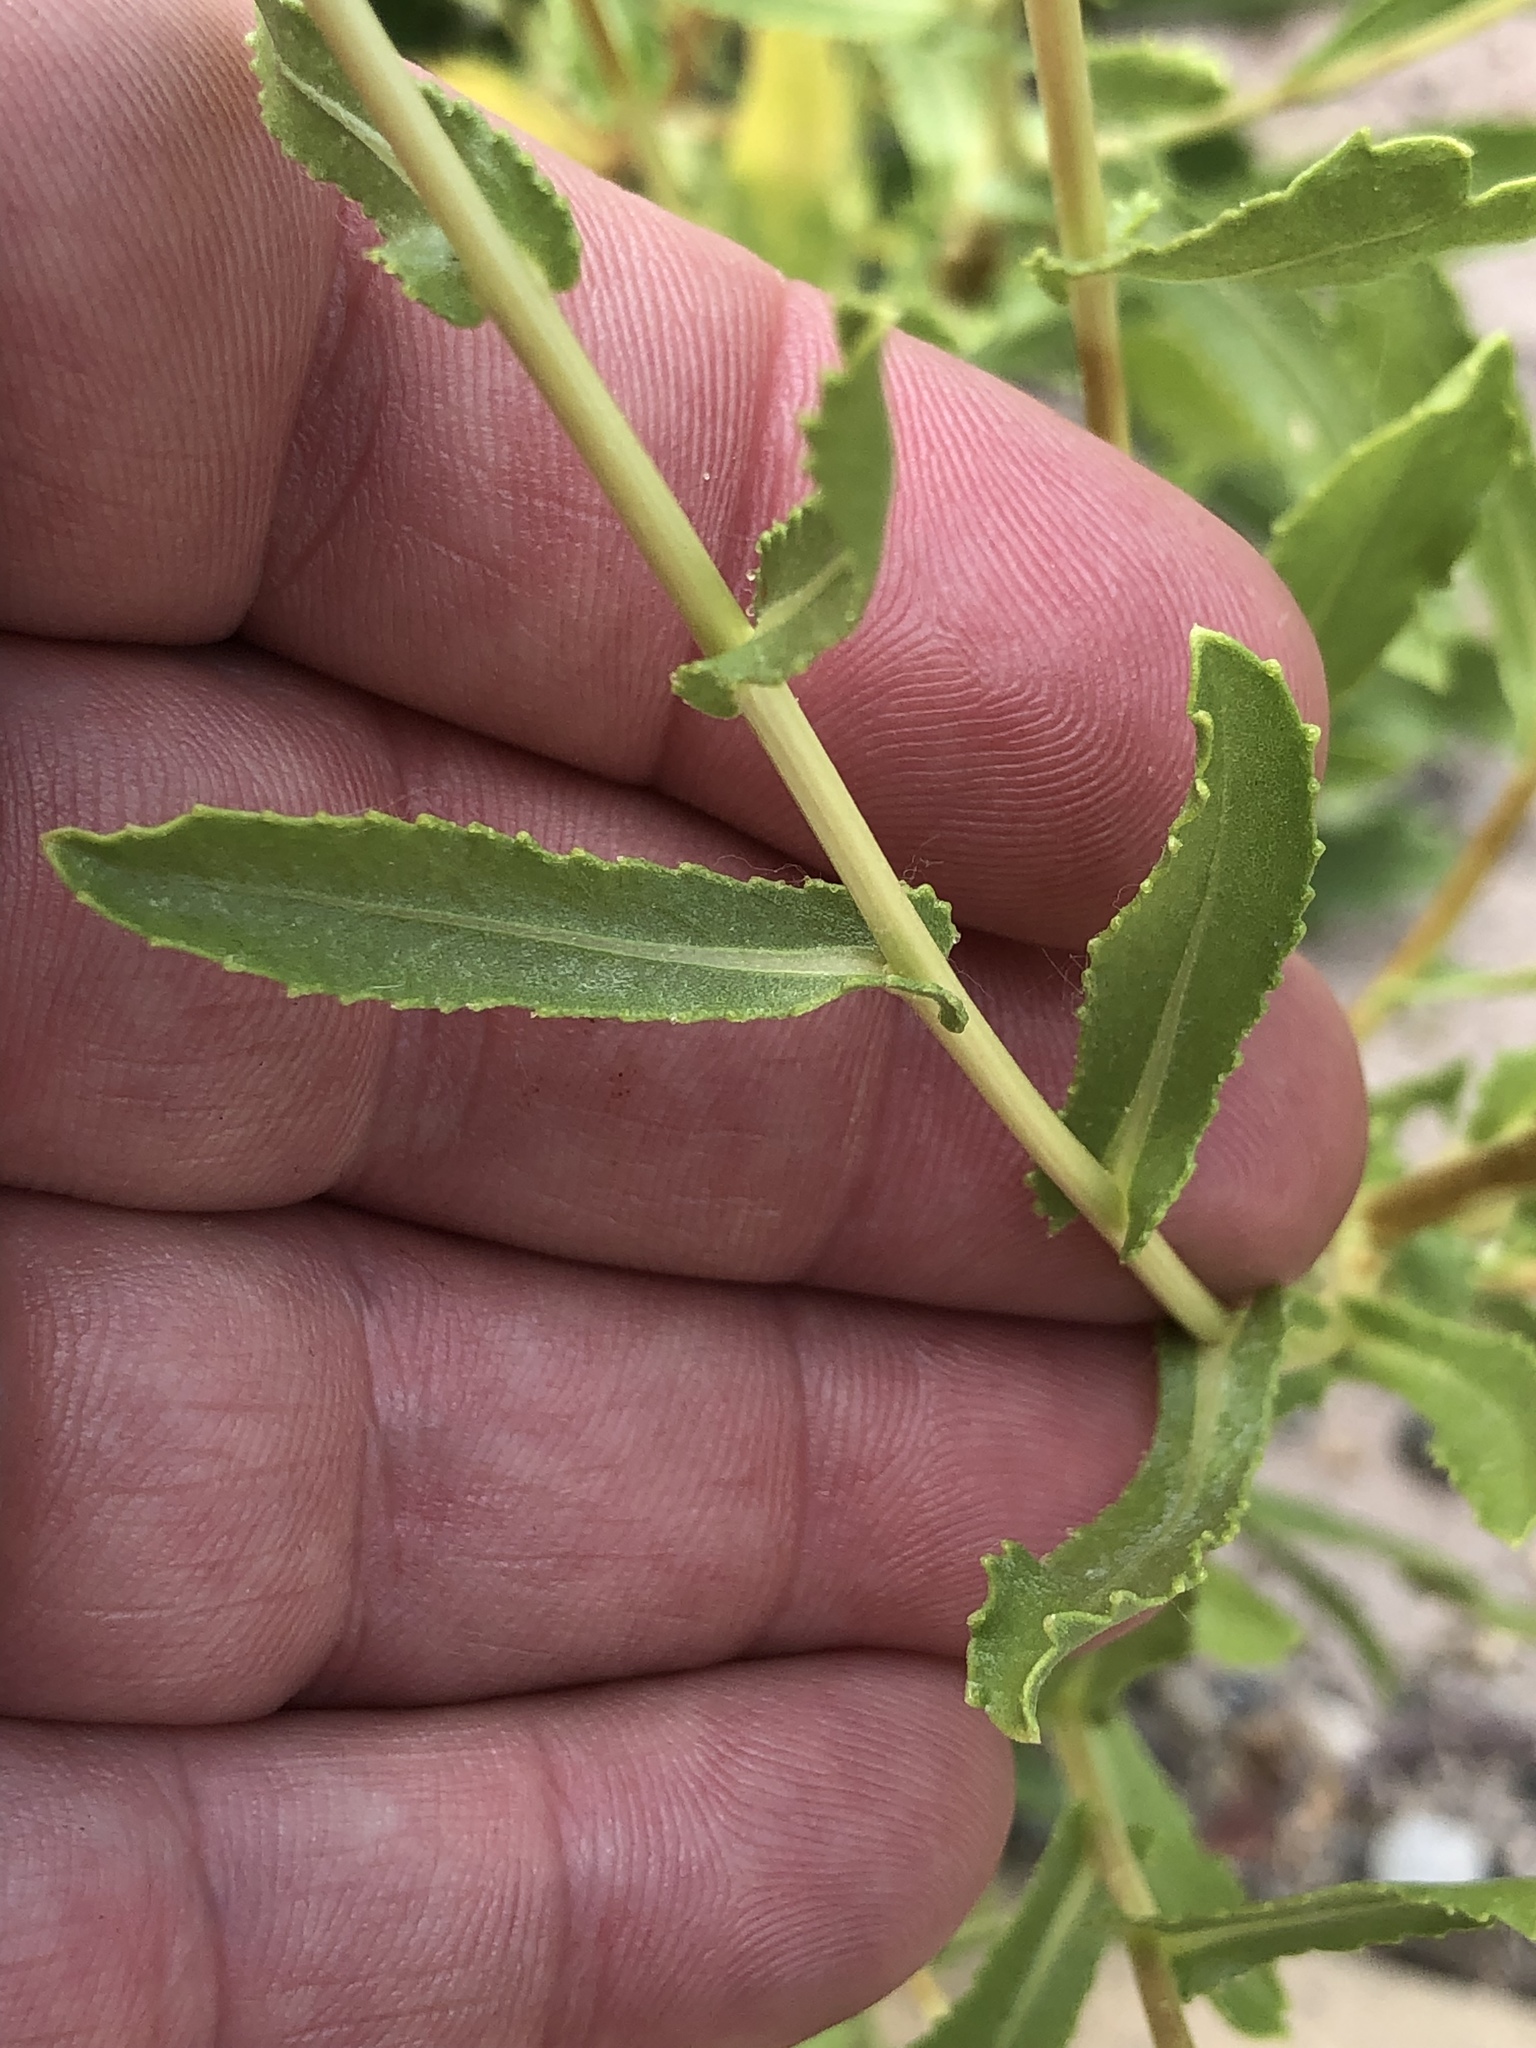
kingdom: Plantae
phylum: Tracheophyta
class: Magnoliopsida
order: Asterales
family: Asteraceae
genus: Grindelia
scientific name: Grindelia squarrosa
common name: Curly-cup gumweed
